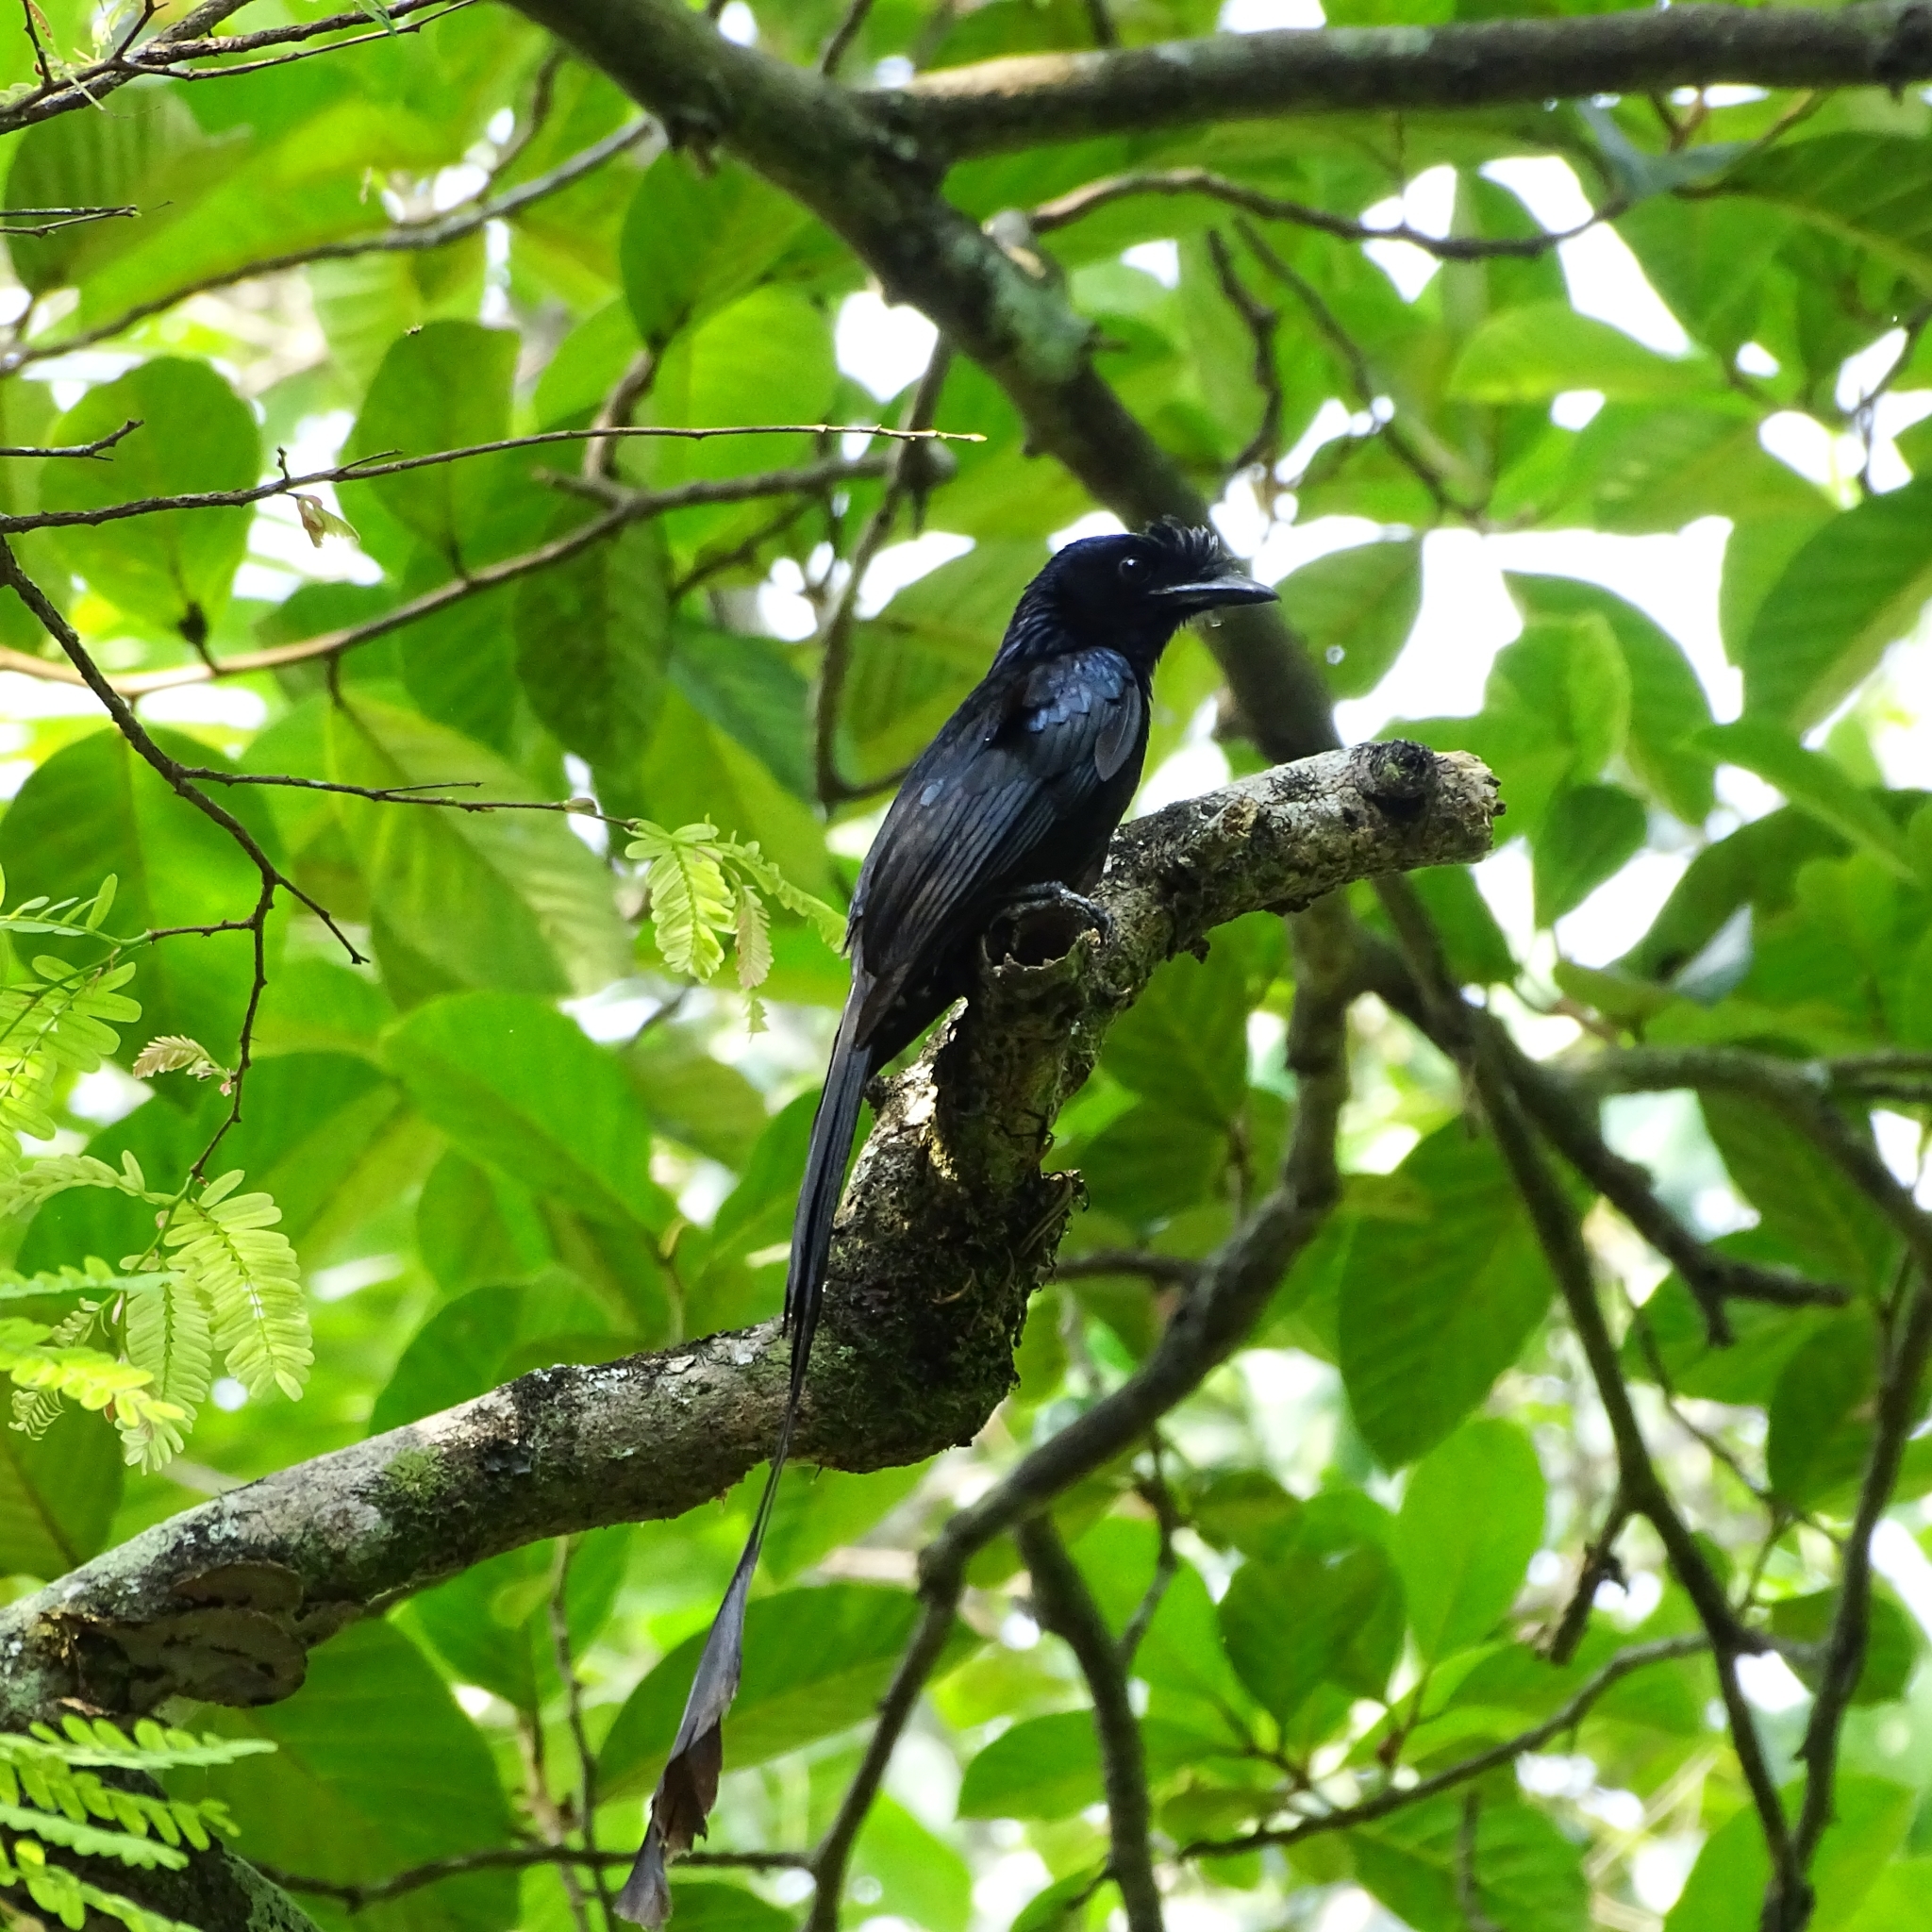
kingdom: Animalia
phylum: Chordata
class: Aves
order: Passeriformes
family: Dicruridae
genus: Dicrurus
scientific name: Dicrurus paradiseus
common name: Greater racket-tailed drongo
